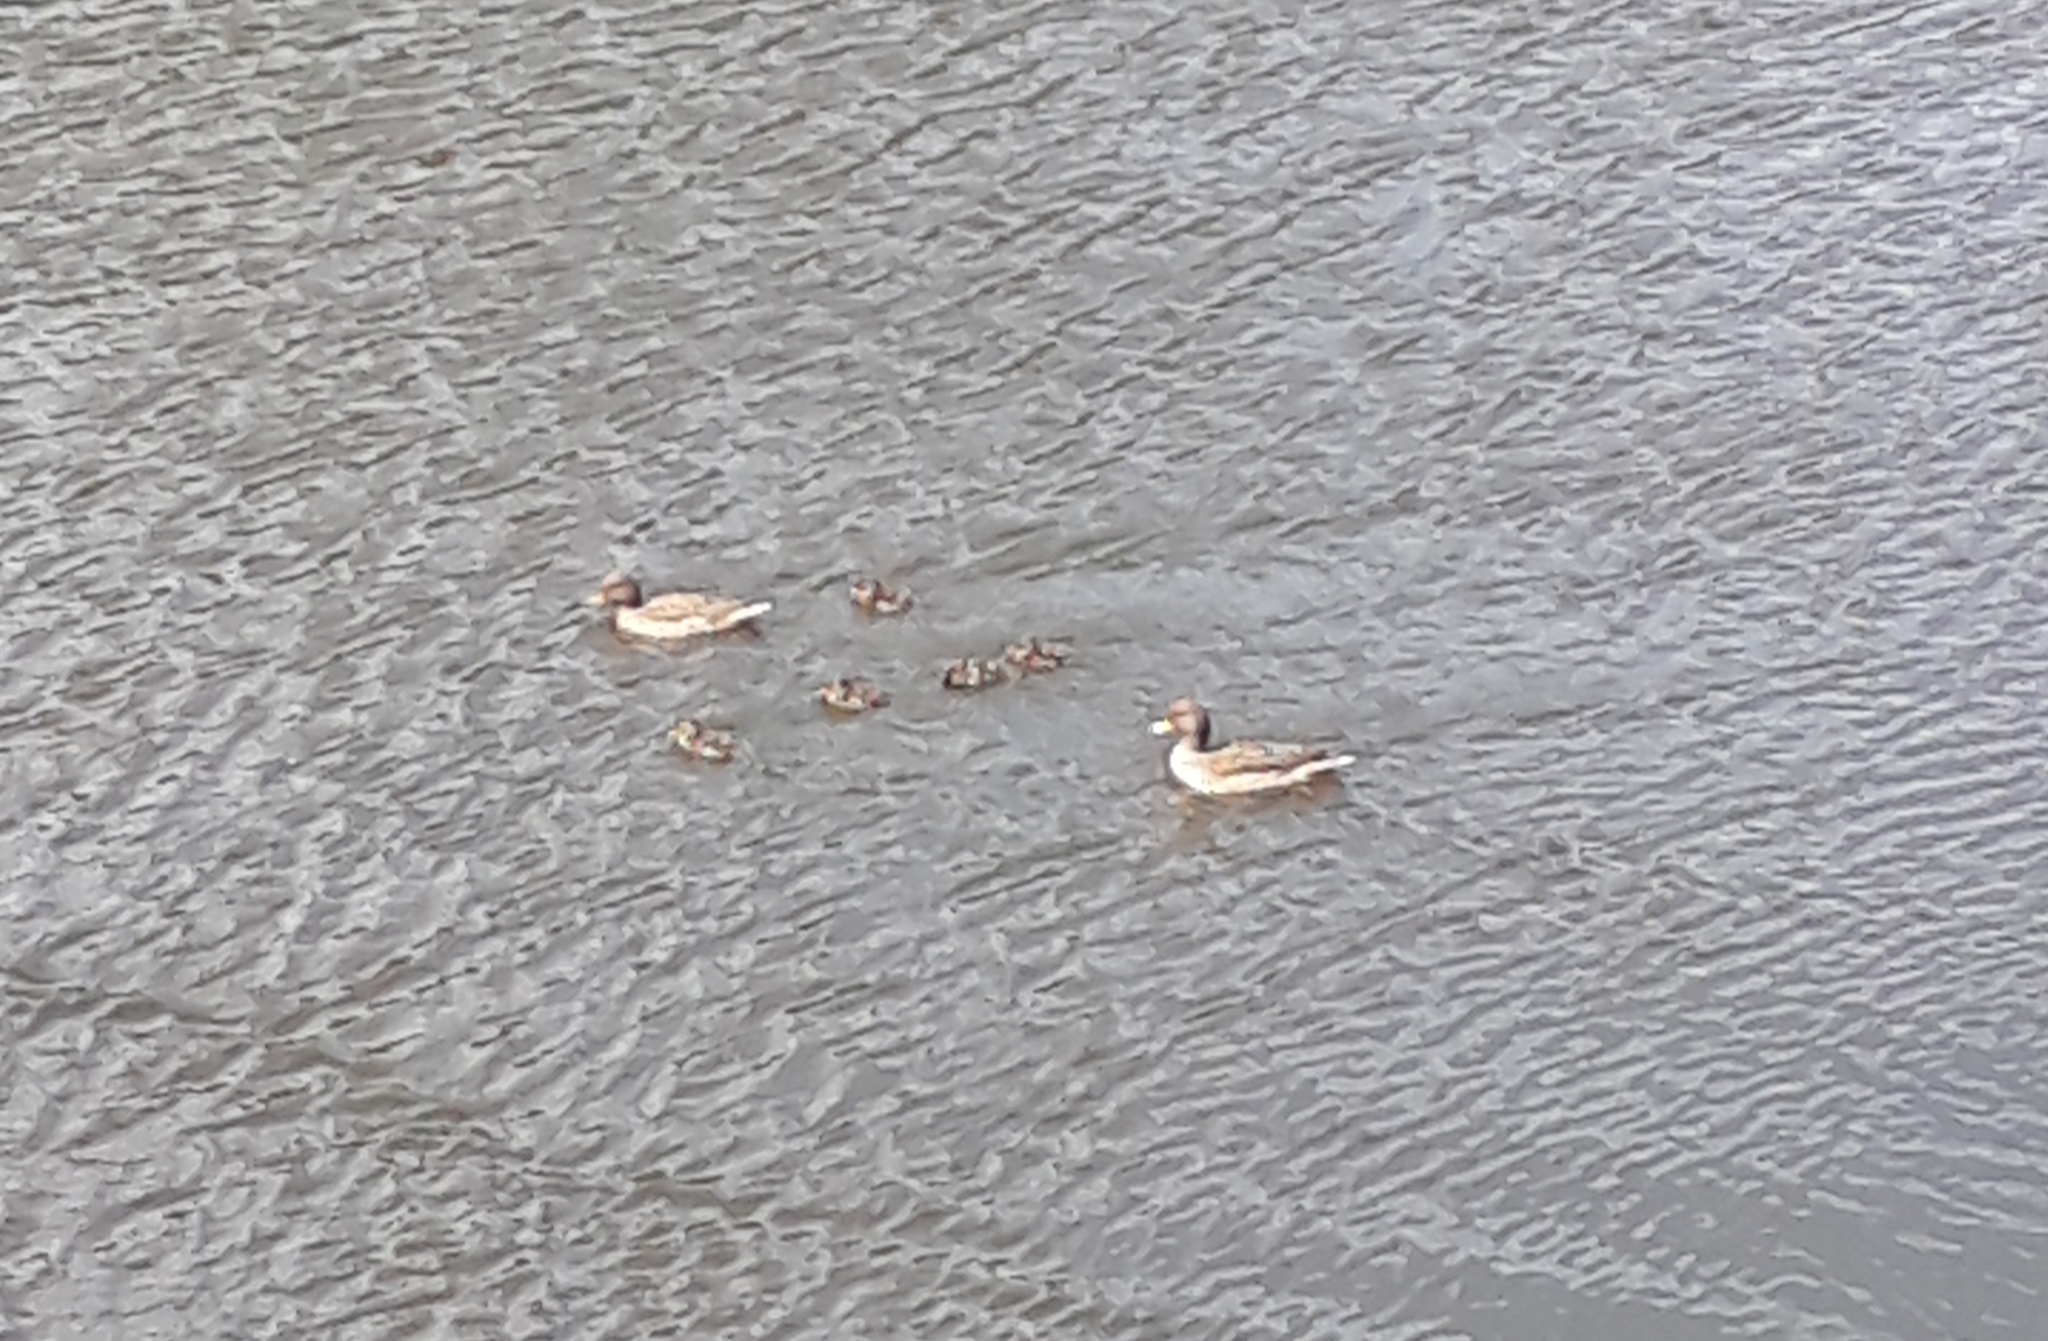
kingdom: Animalia
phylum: Chordata
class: Aves
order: Anseriformes
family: Anatidae
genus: Anas
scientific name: Anas flavirostris
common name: Yellow-billed teal
